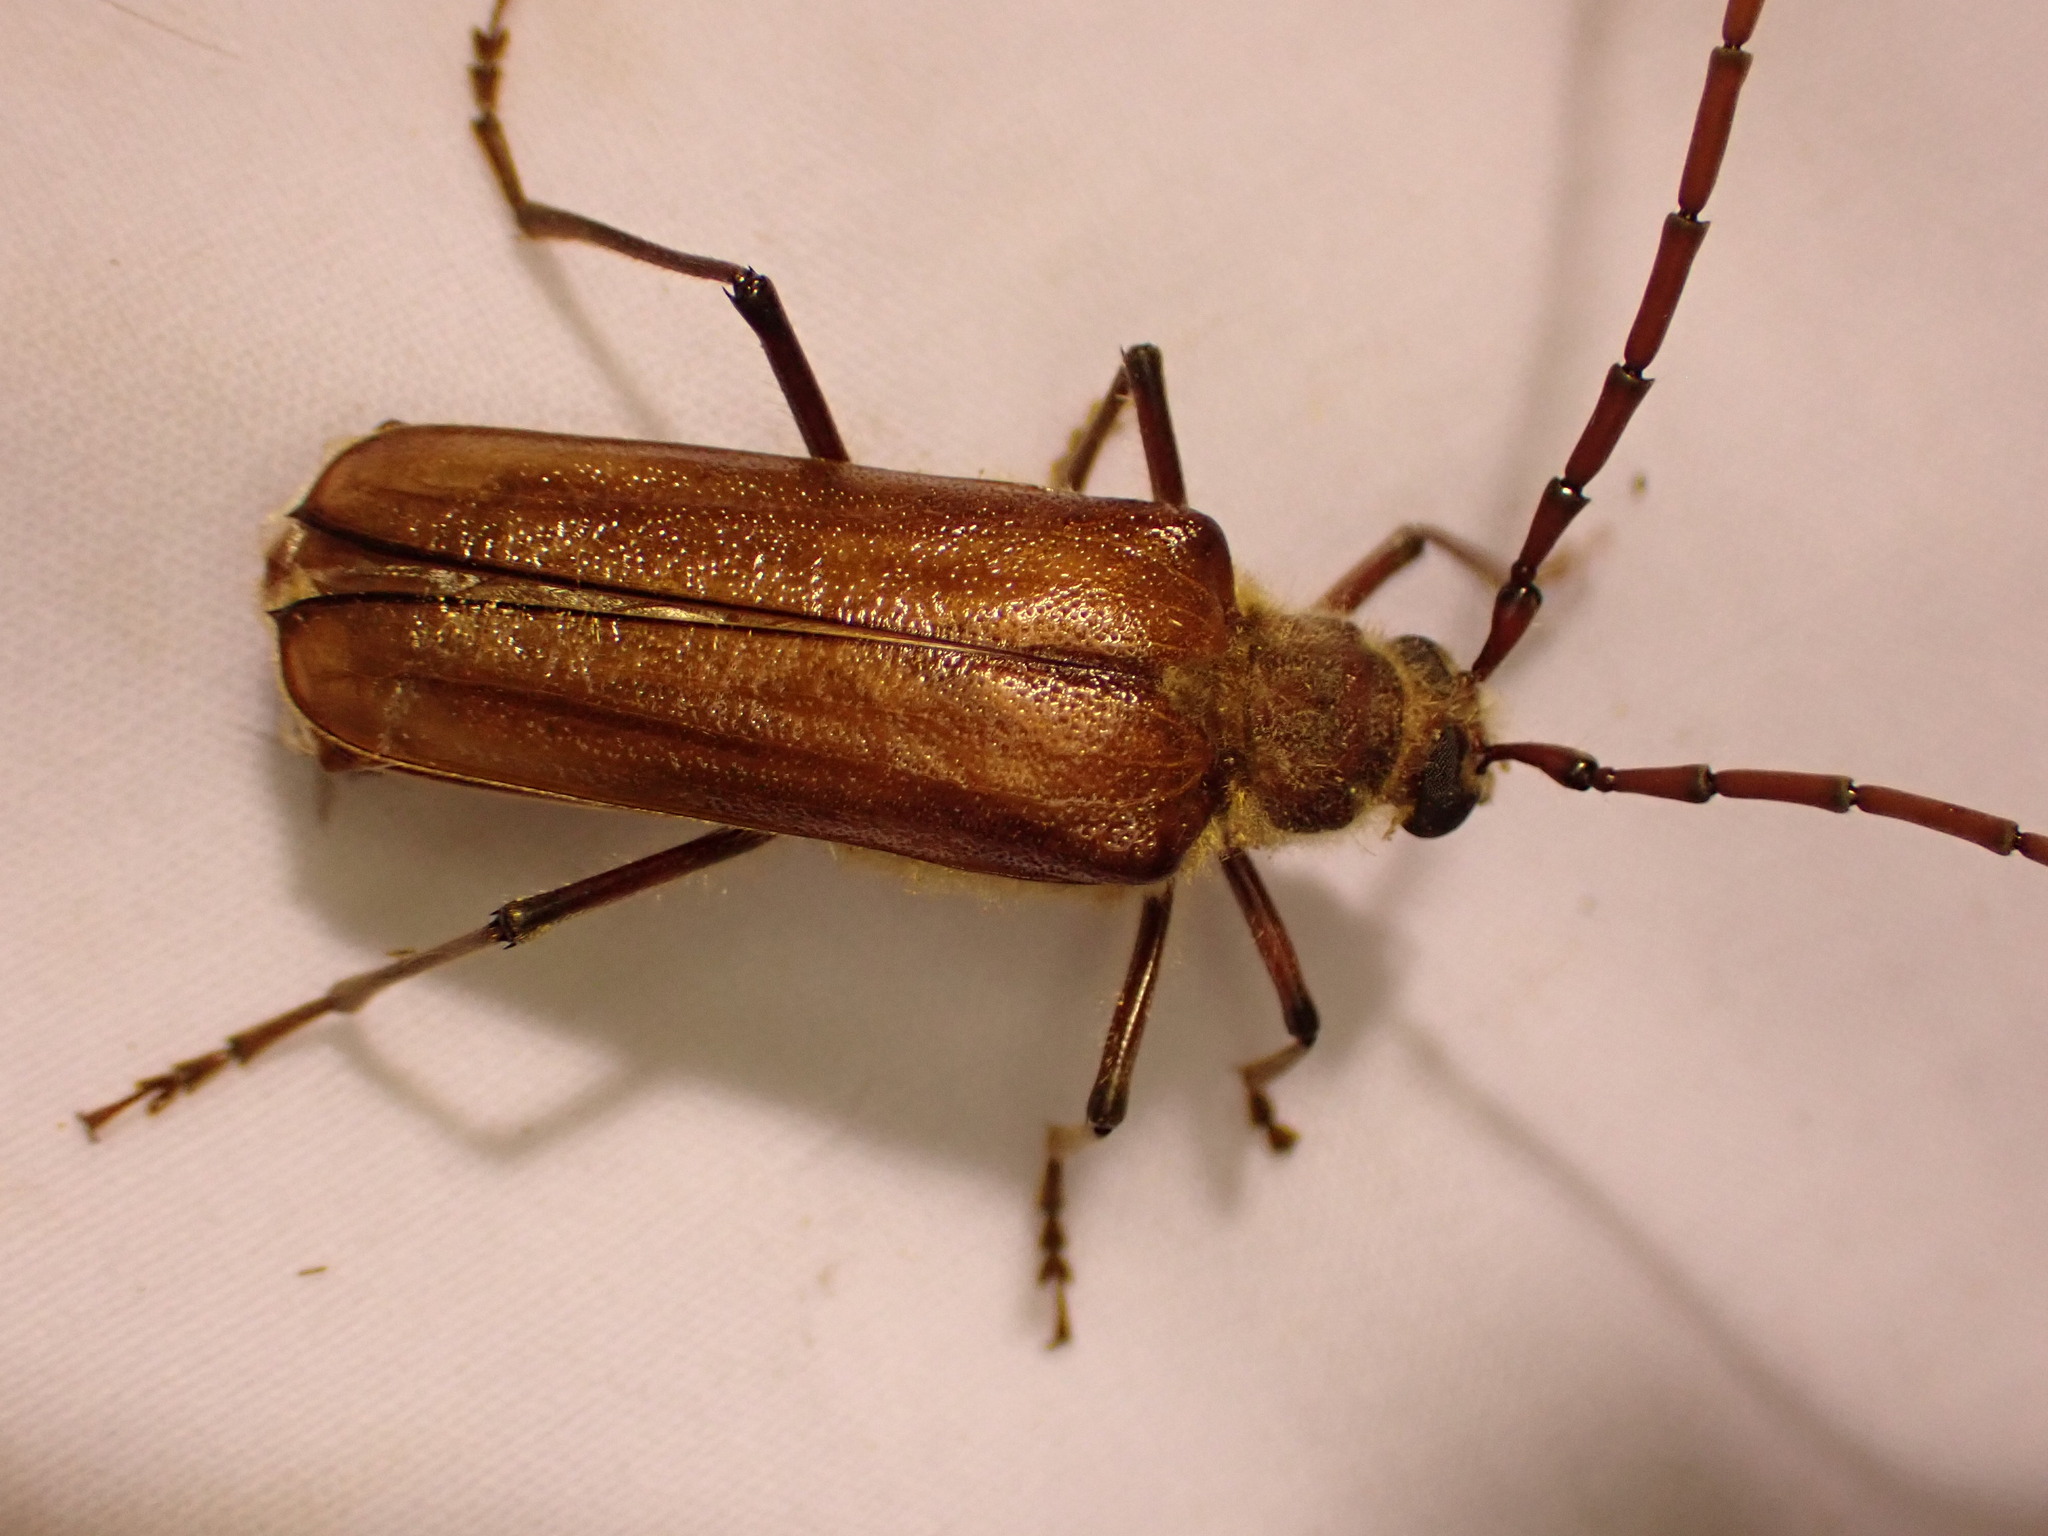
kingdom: Animalia
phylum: Arthropoda
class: Insecta
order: Coleoptera
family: Cerambycidae
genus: Ochrocydus
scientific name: Ochrocydus huttoni
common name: Kanuka longhorn
